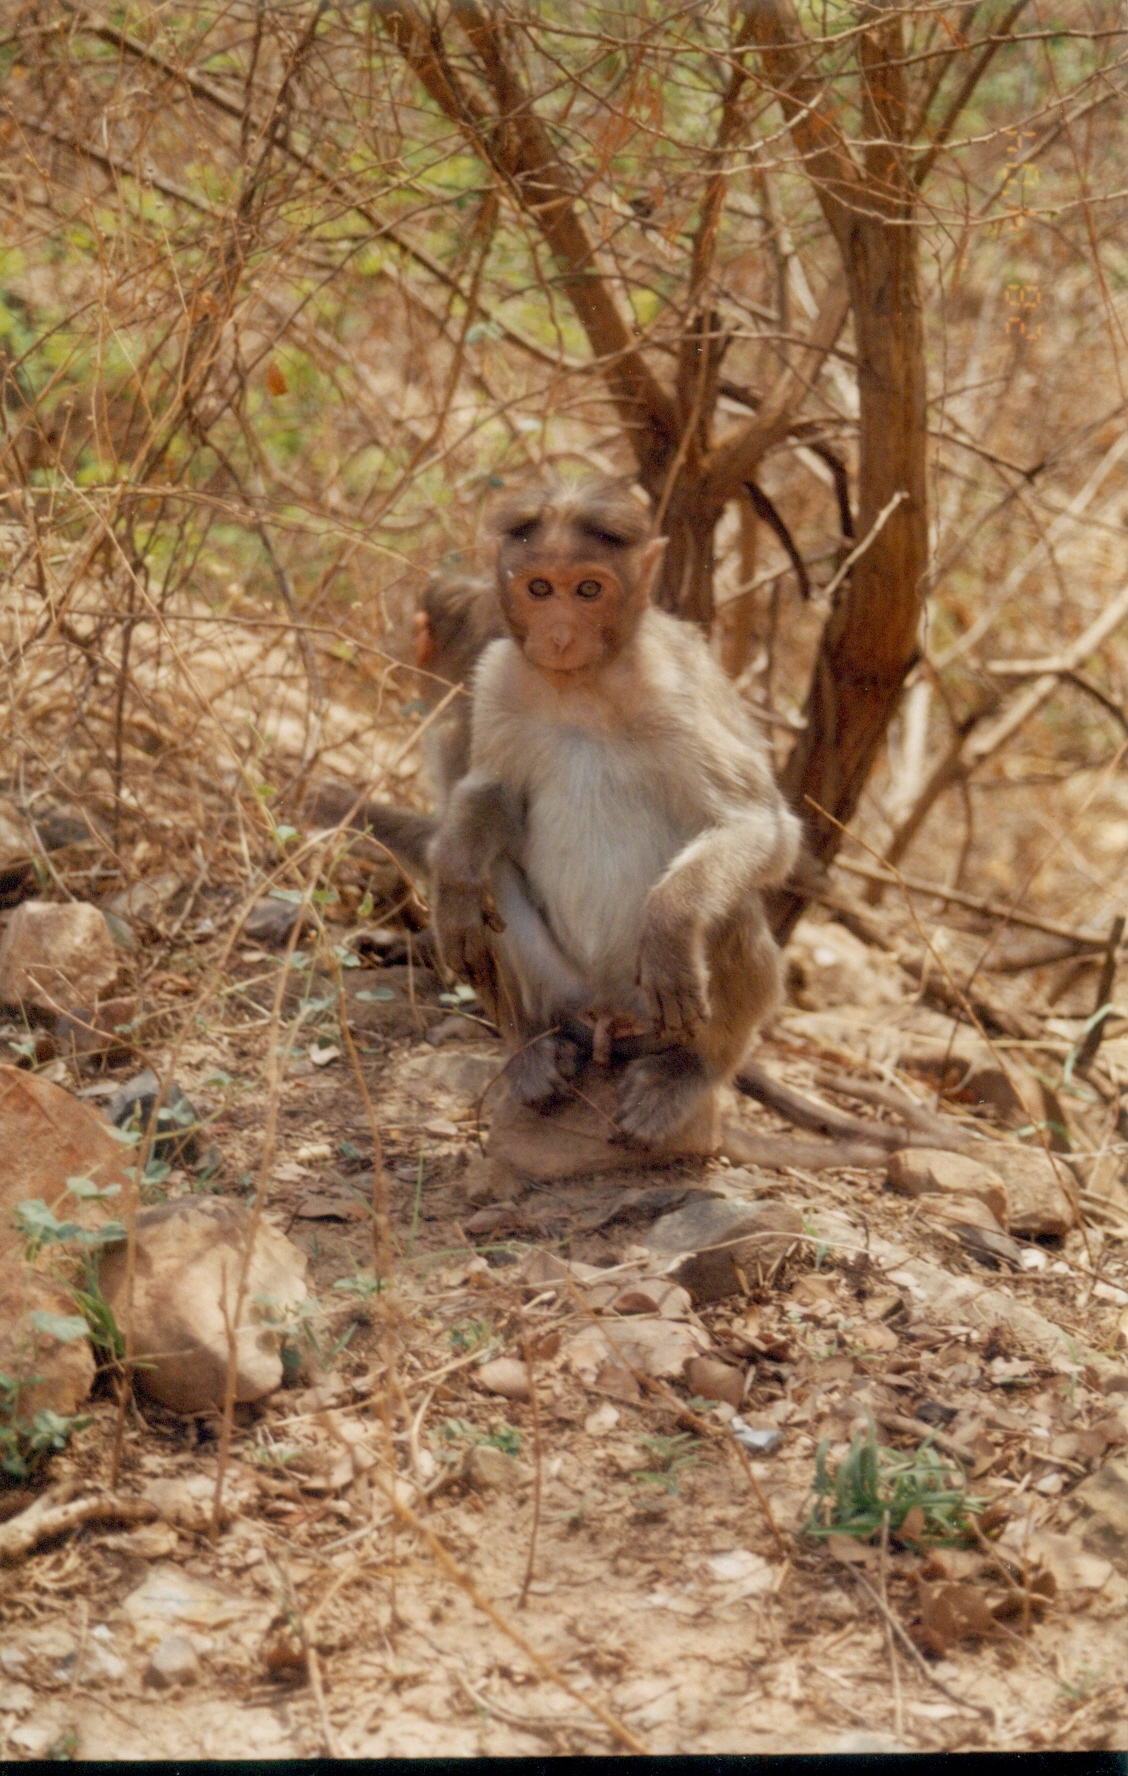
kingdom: Animalia
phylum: Chordata
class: Mammalia
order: Primates
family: Cercopithecidae
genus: Macaca
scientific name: Macaca radiata
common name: Bonnet macaque
